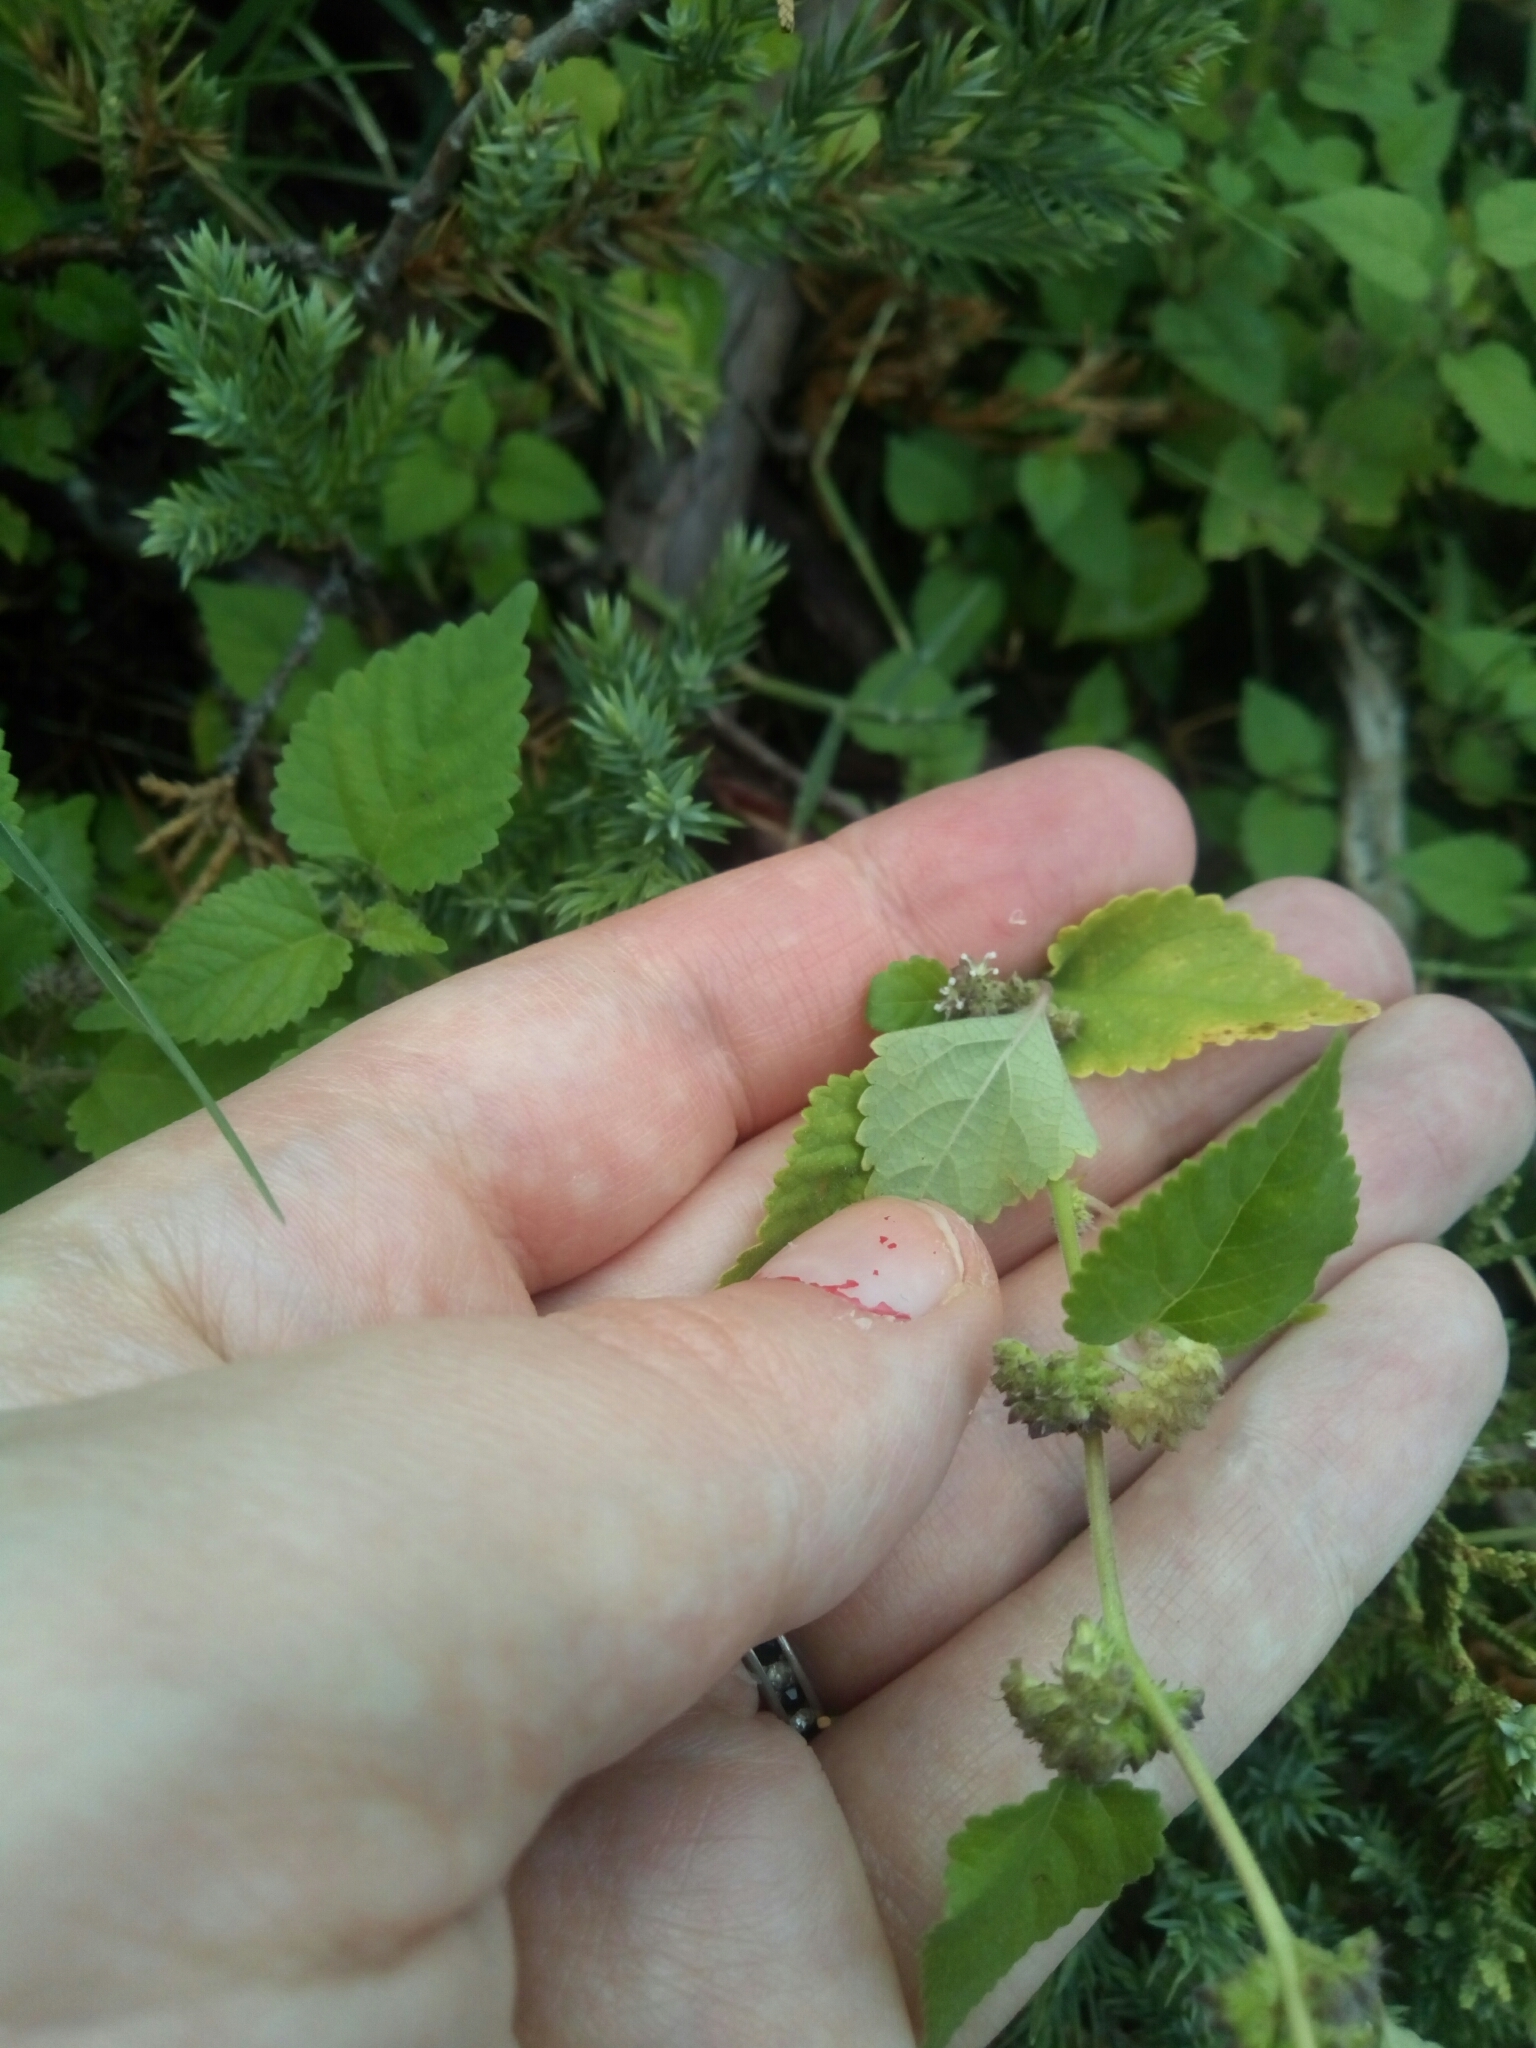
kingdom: Plantae
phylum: Tracheophyta
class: Magnoliopsida
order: Rosales
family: Moraceae
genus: Fatoua
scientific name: Fatoua villosa
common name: Hairy crabweed
